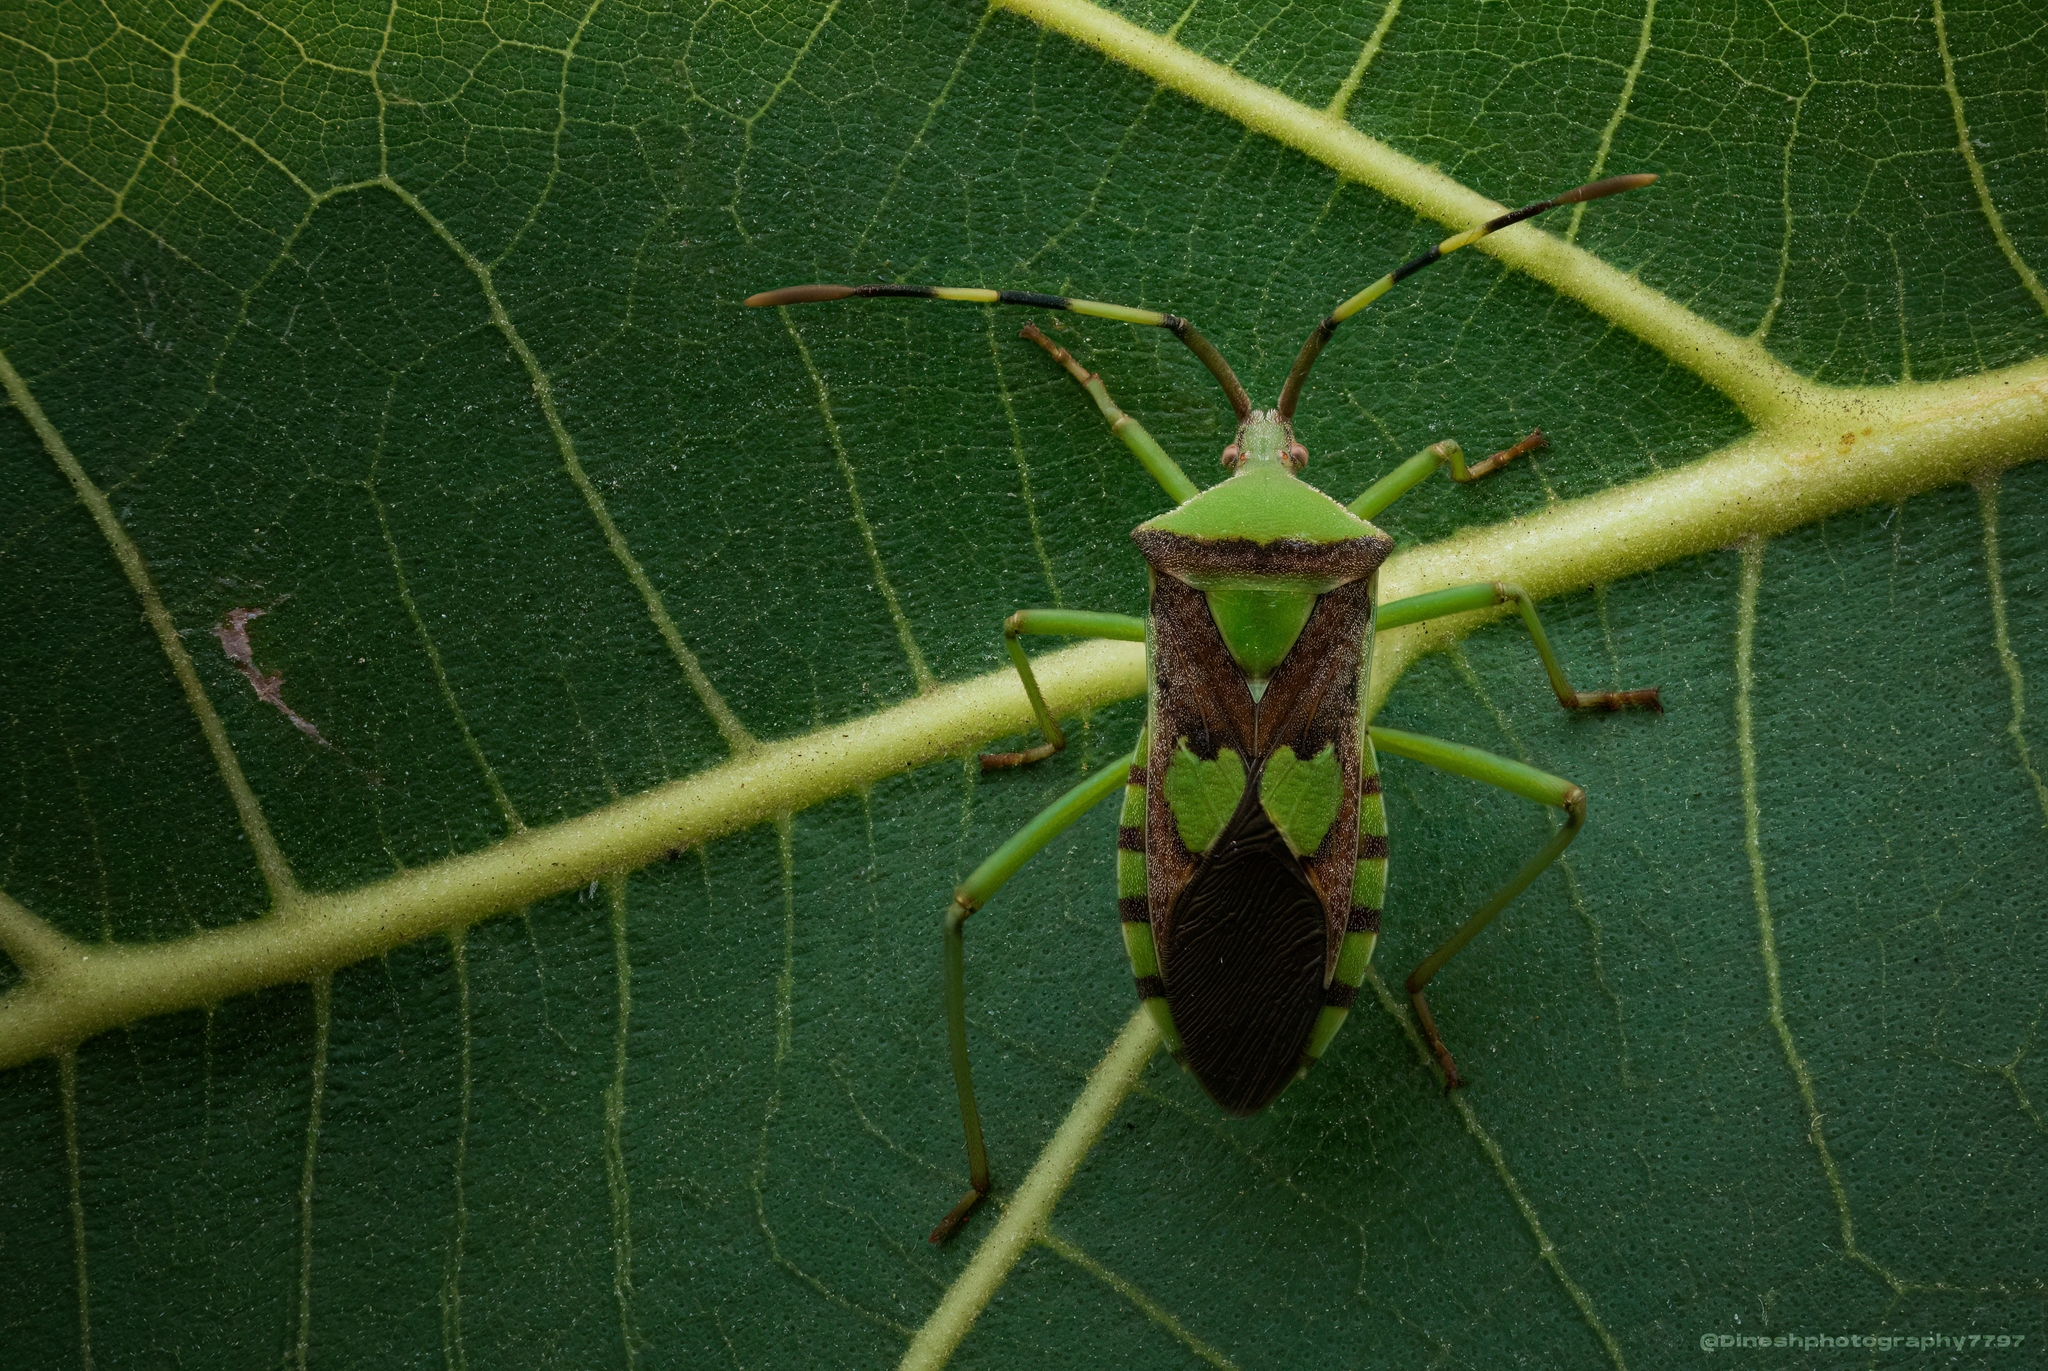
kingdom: Animalia
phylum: Arthropoda
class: Insecta
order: Hemiptera
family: Coreidae
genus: Prismatocerus
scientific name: Prismatocerus prominulus
